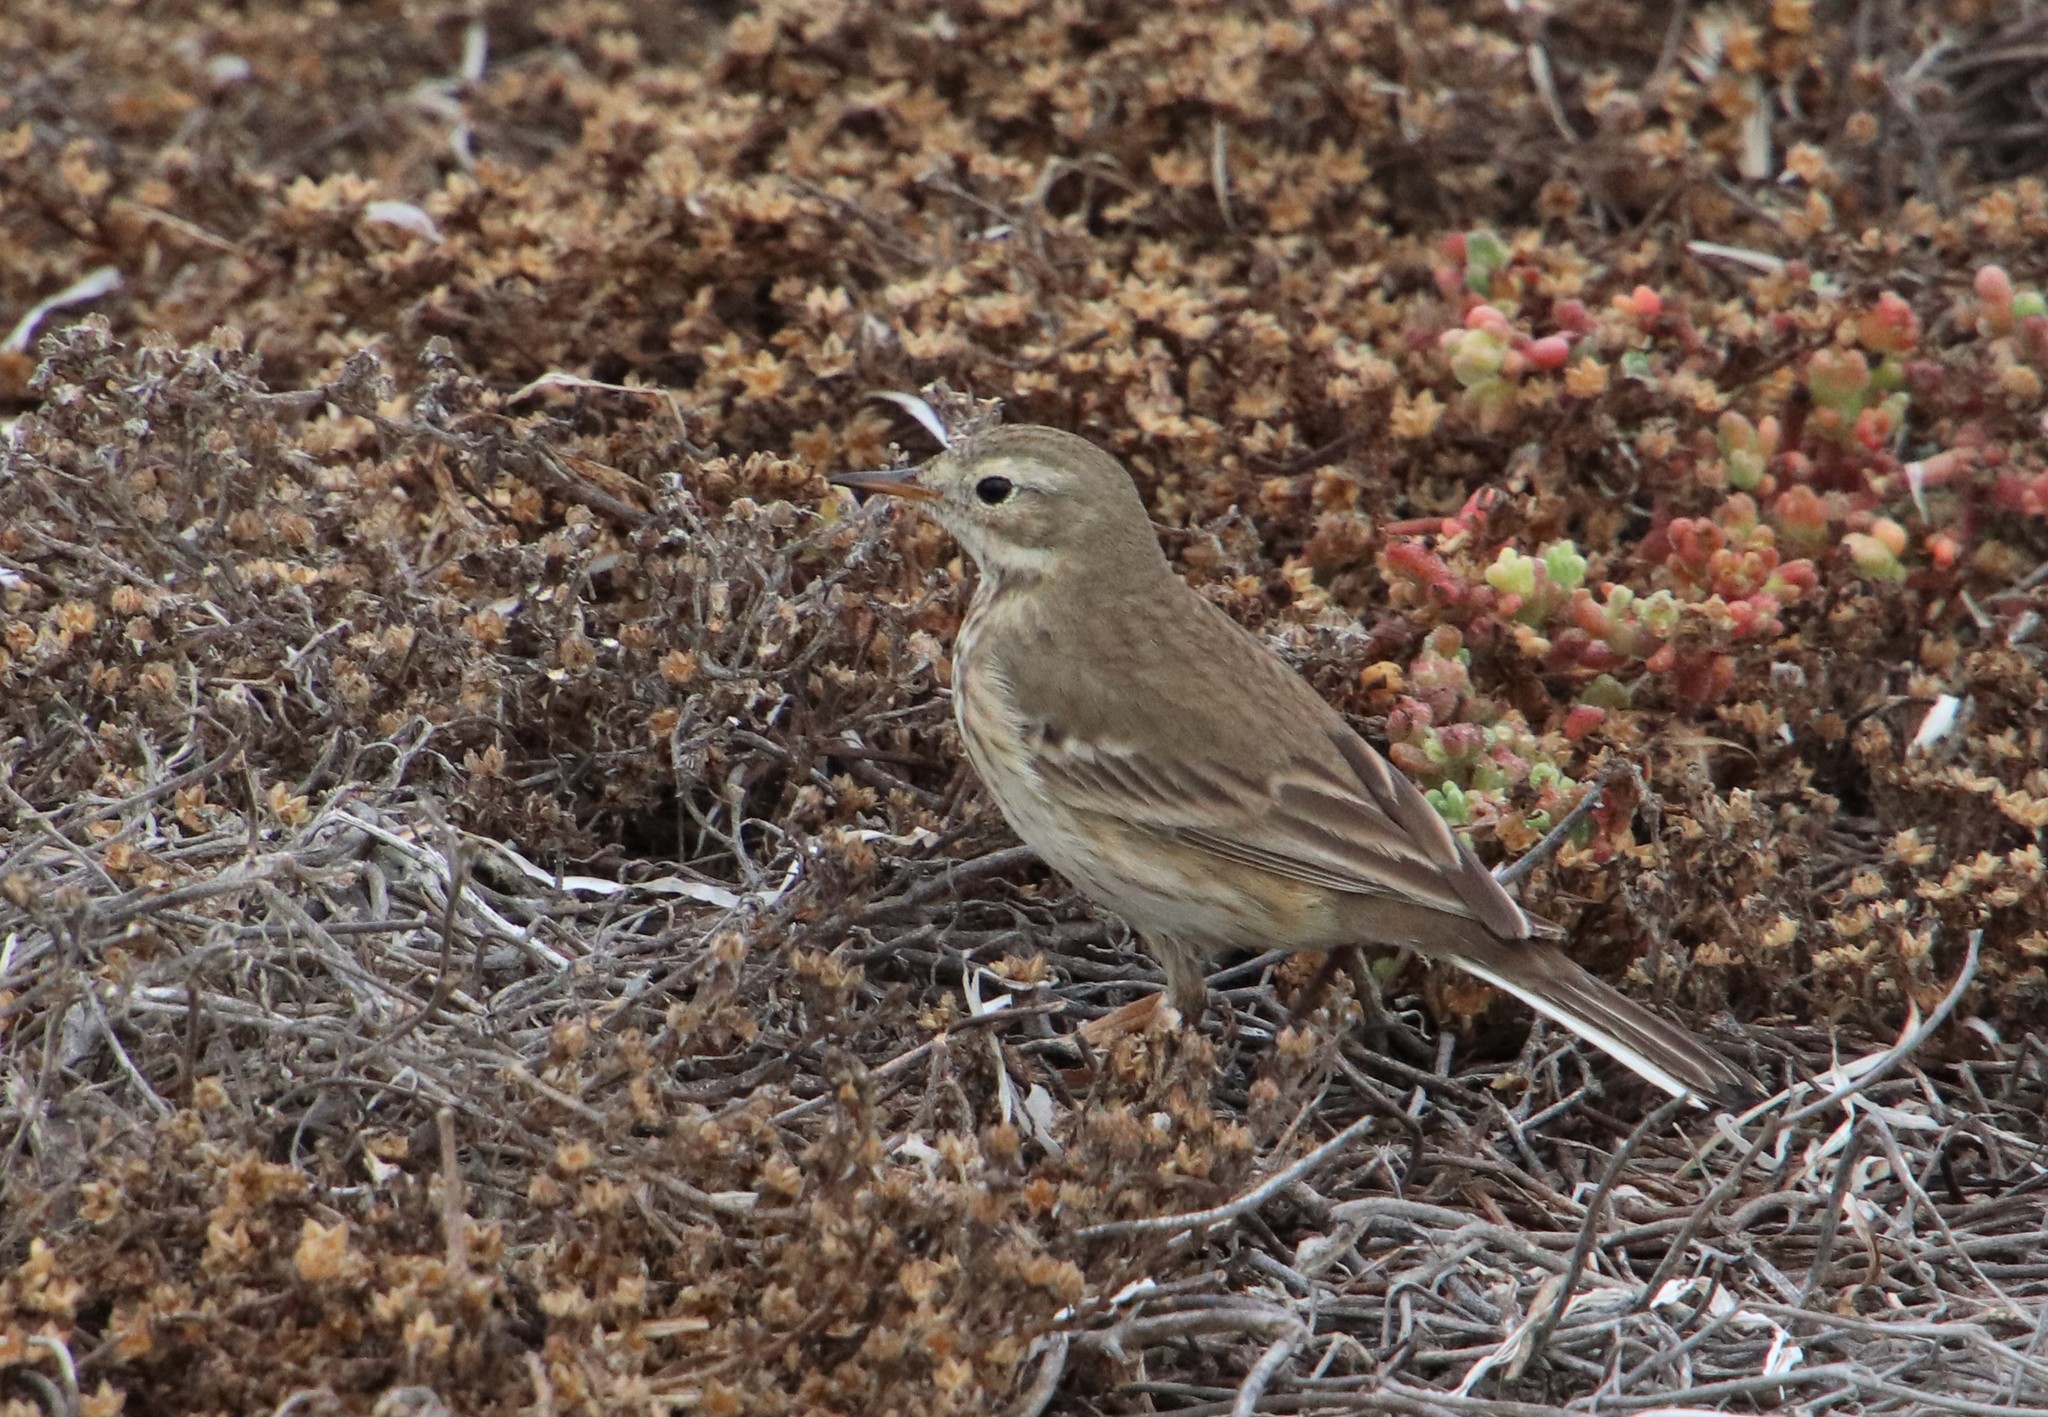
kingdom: Animalia
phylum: Chordata
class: Aves
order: Passeriformes
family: Motacillidae
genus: Anthus
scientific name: Anthus rubescens
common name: Buff-bellied pipit
